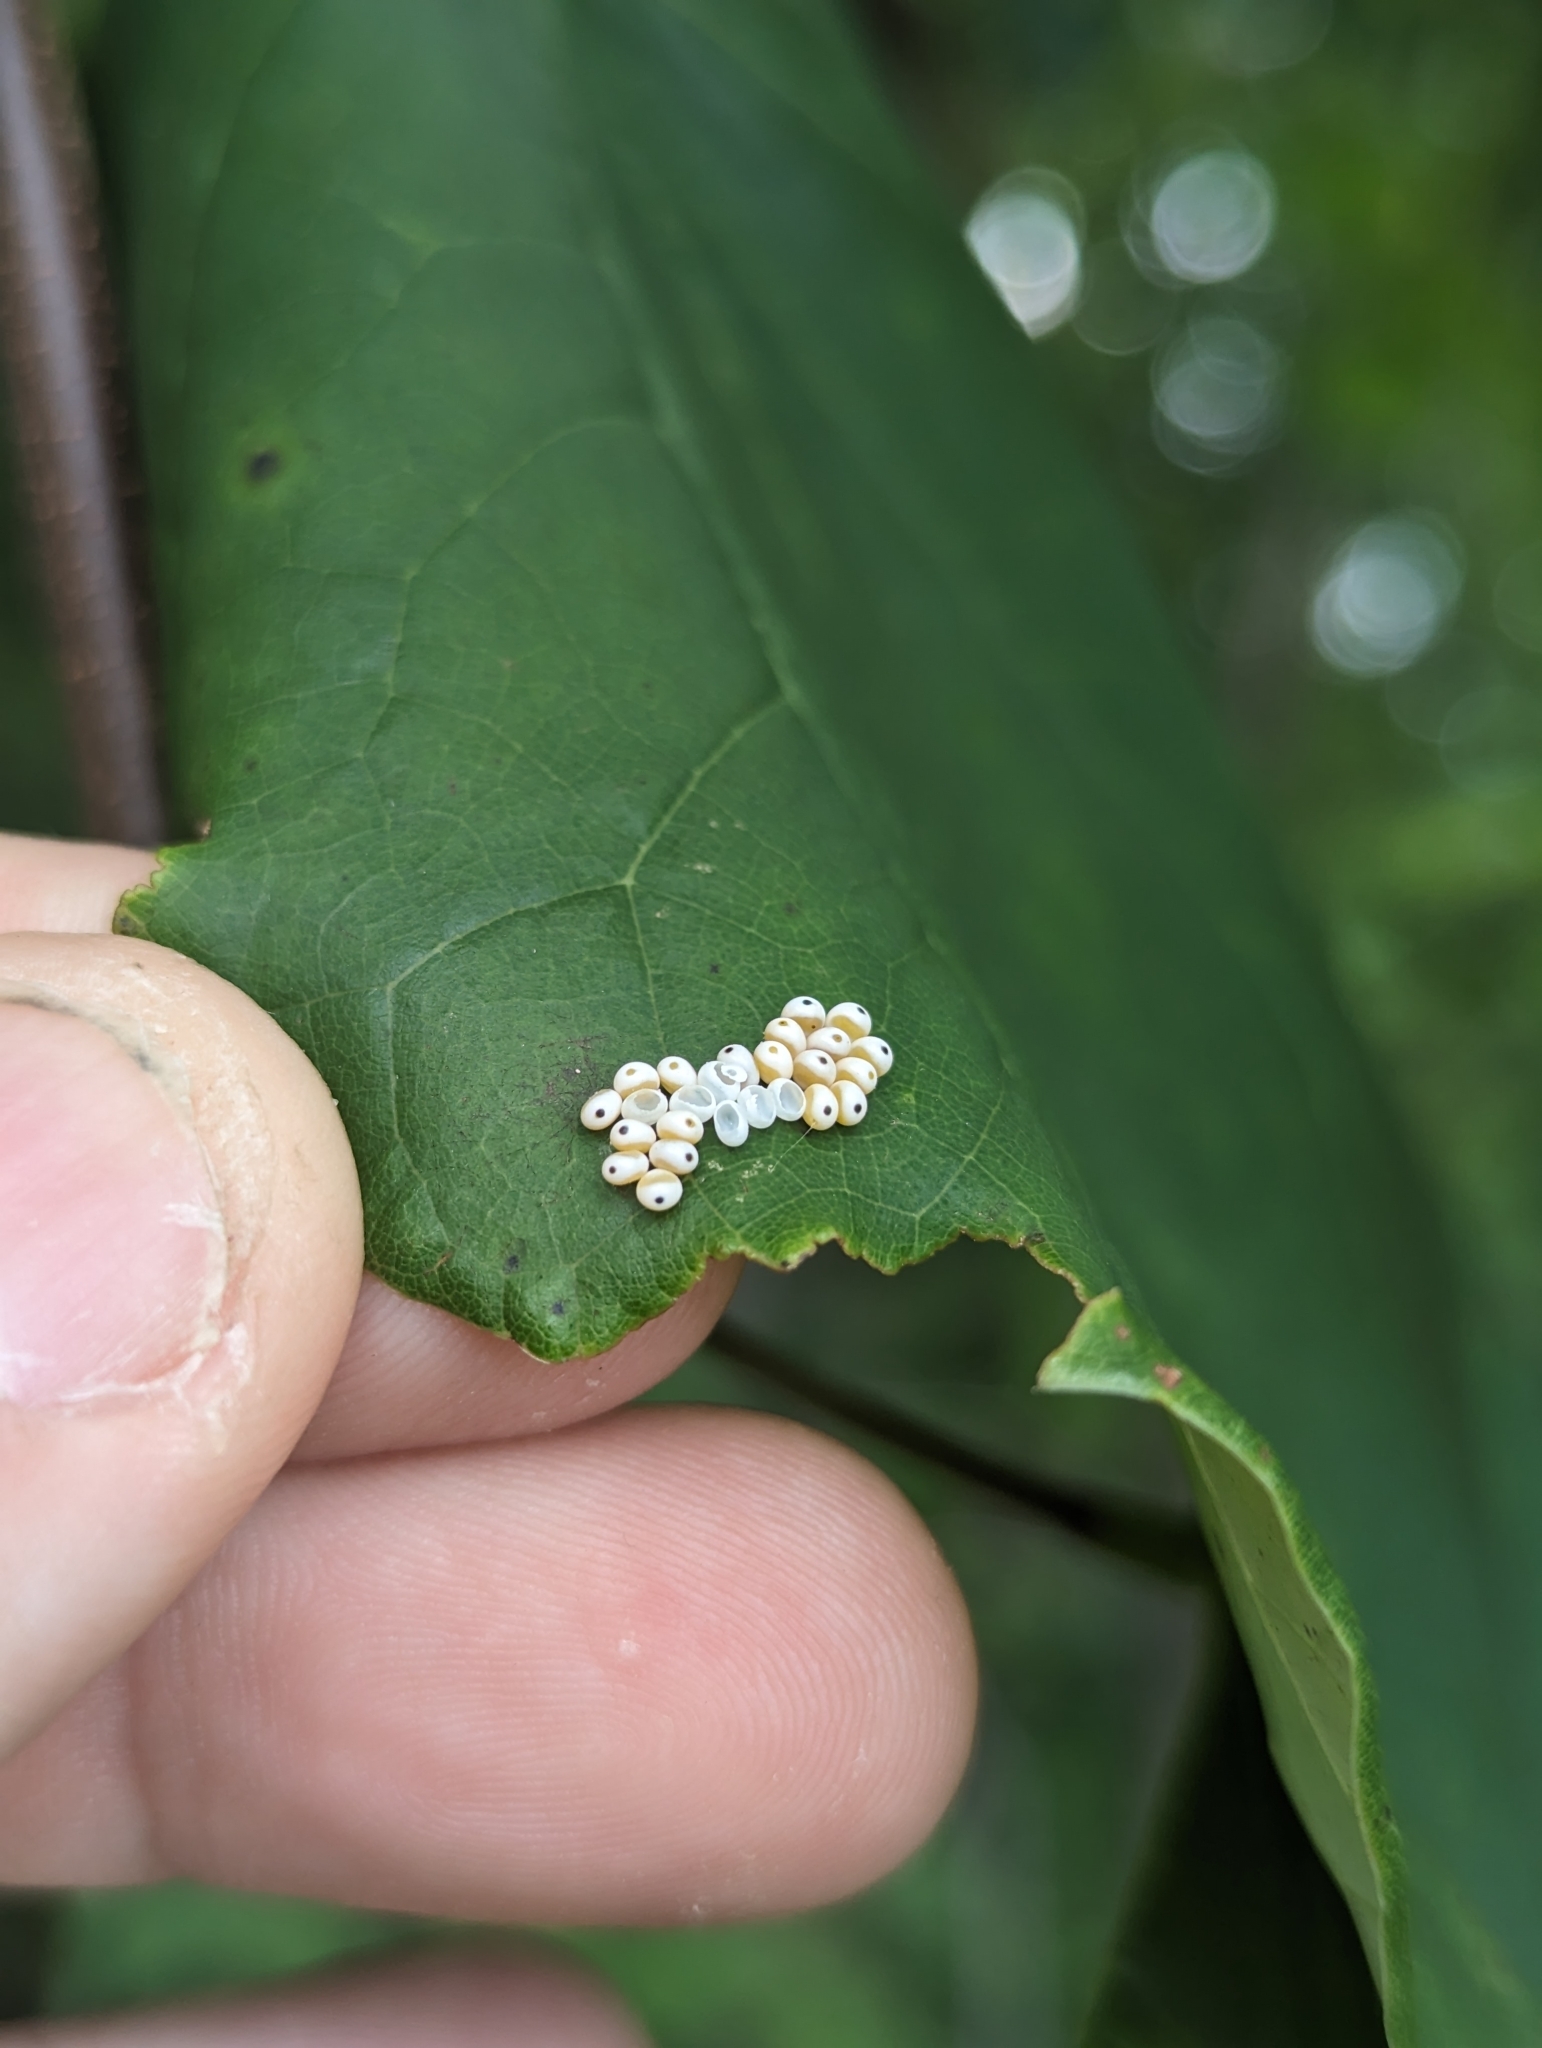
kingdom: Animalia
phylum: Arthropoda
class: Insecta
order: Lepidoptera
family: Saturniidae
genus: Automeris
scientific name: Automeris io
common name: Io moth
